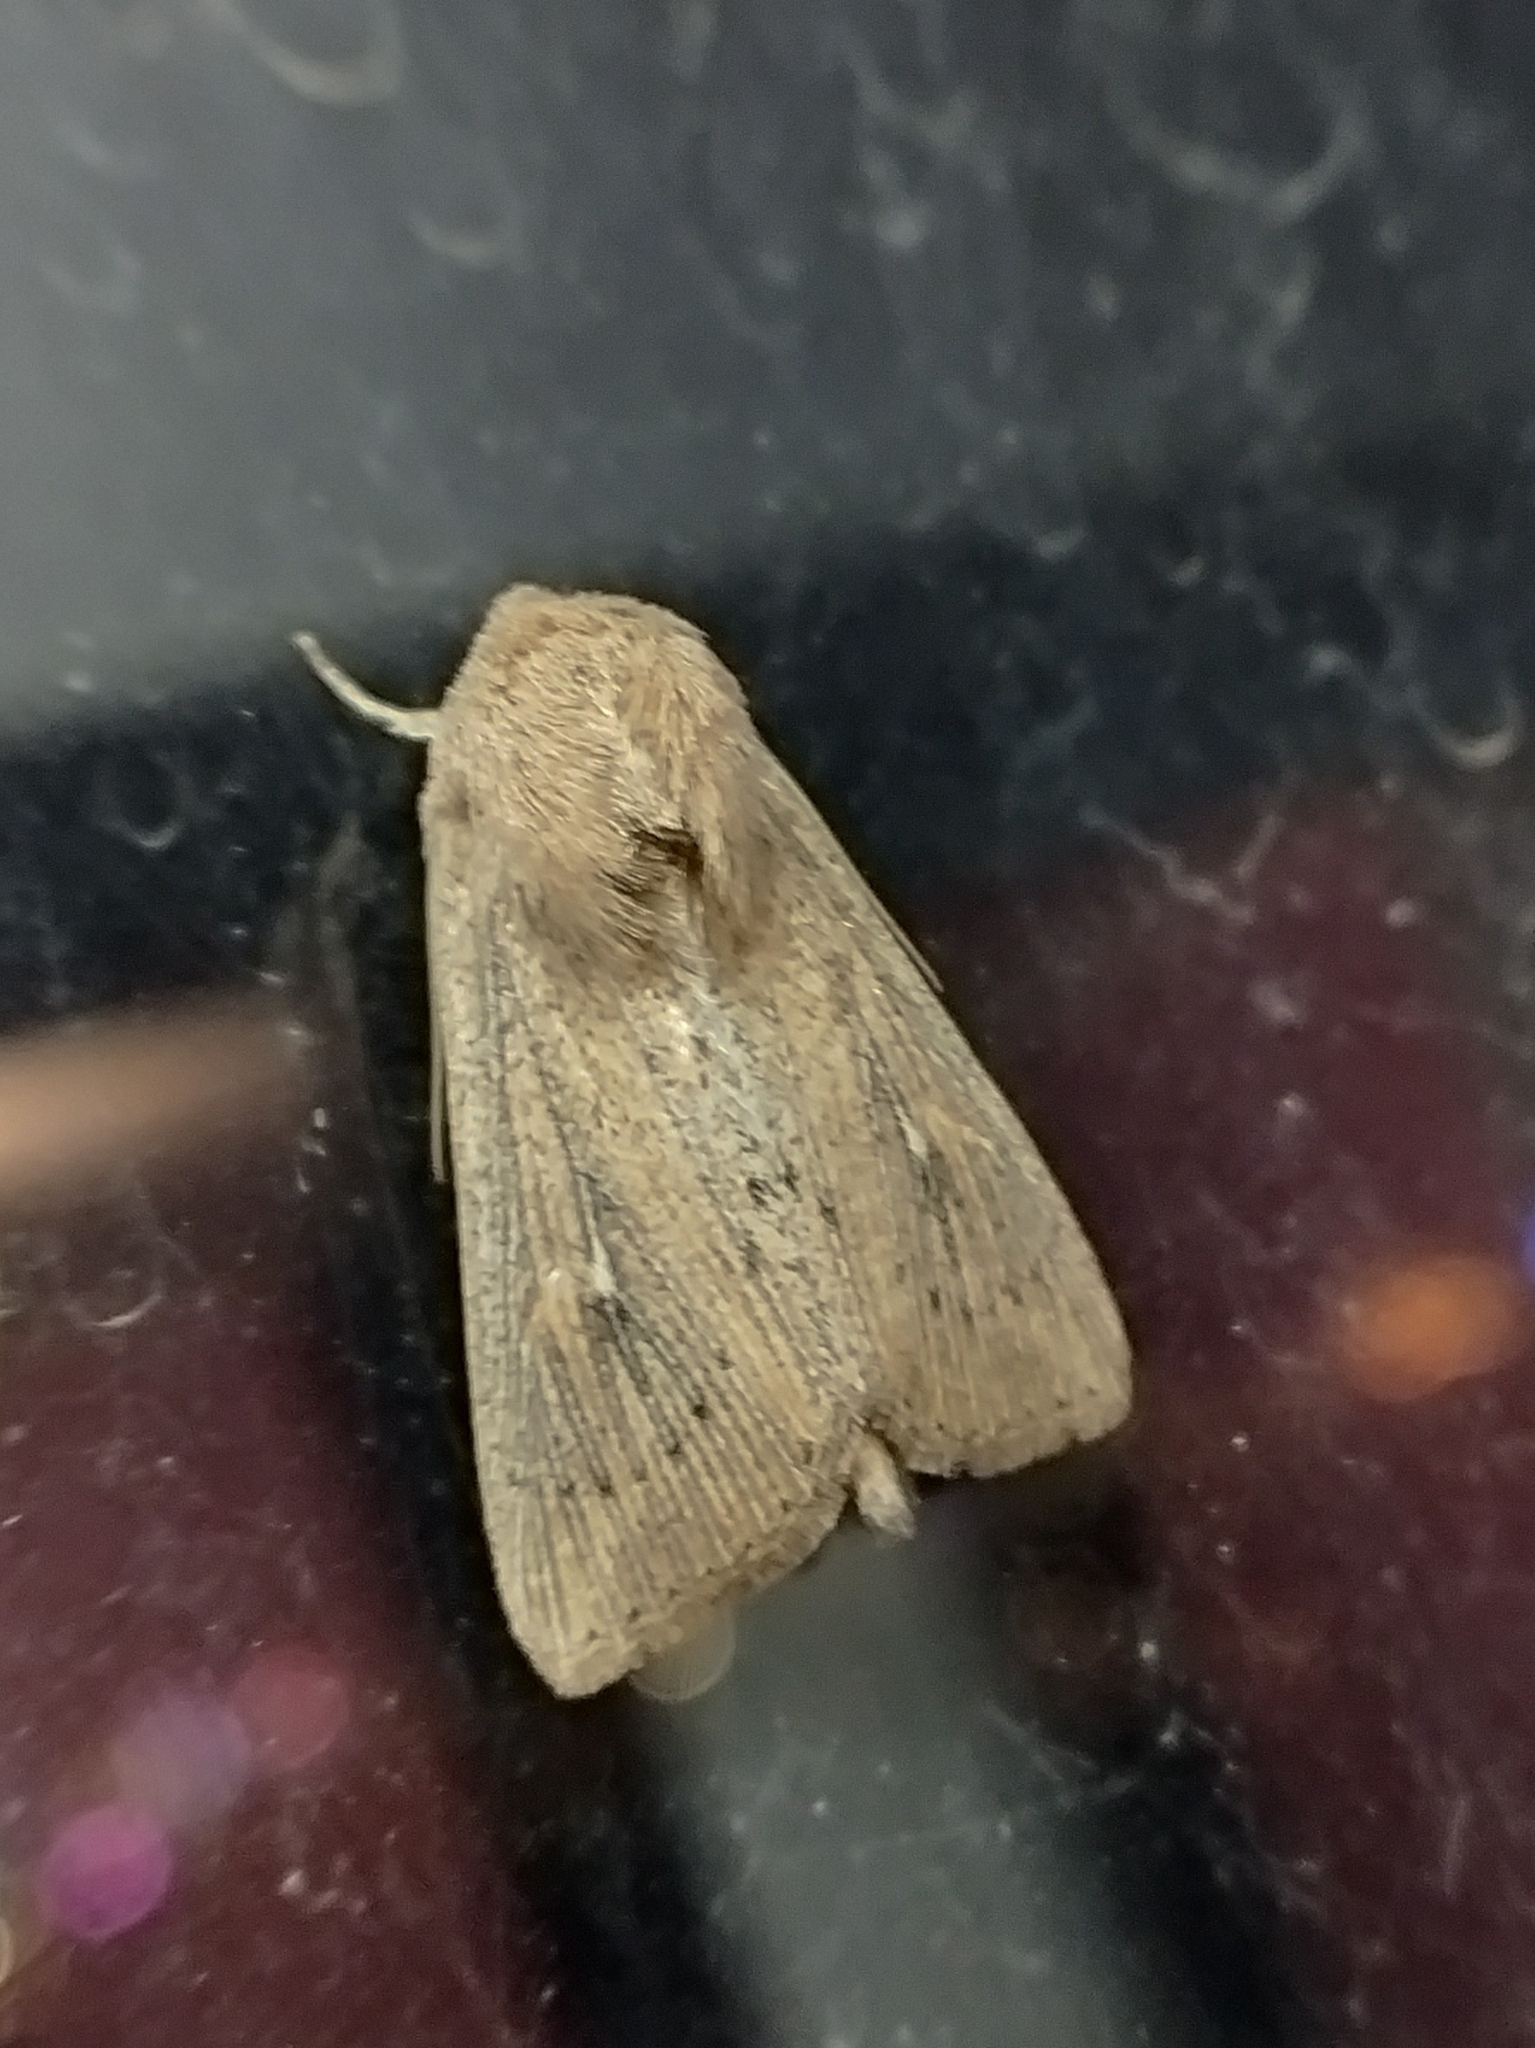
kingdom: Animalia
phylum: Arthropoda
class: Insecta
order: Lepidoptera
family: Noctuidae
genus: Leucania
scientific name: Leucania obsoleta
